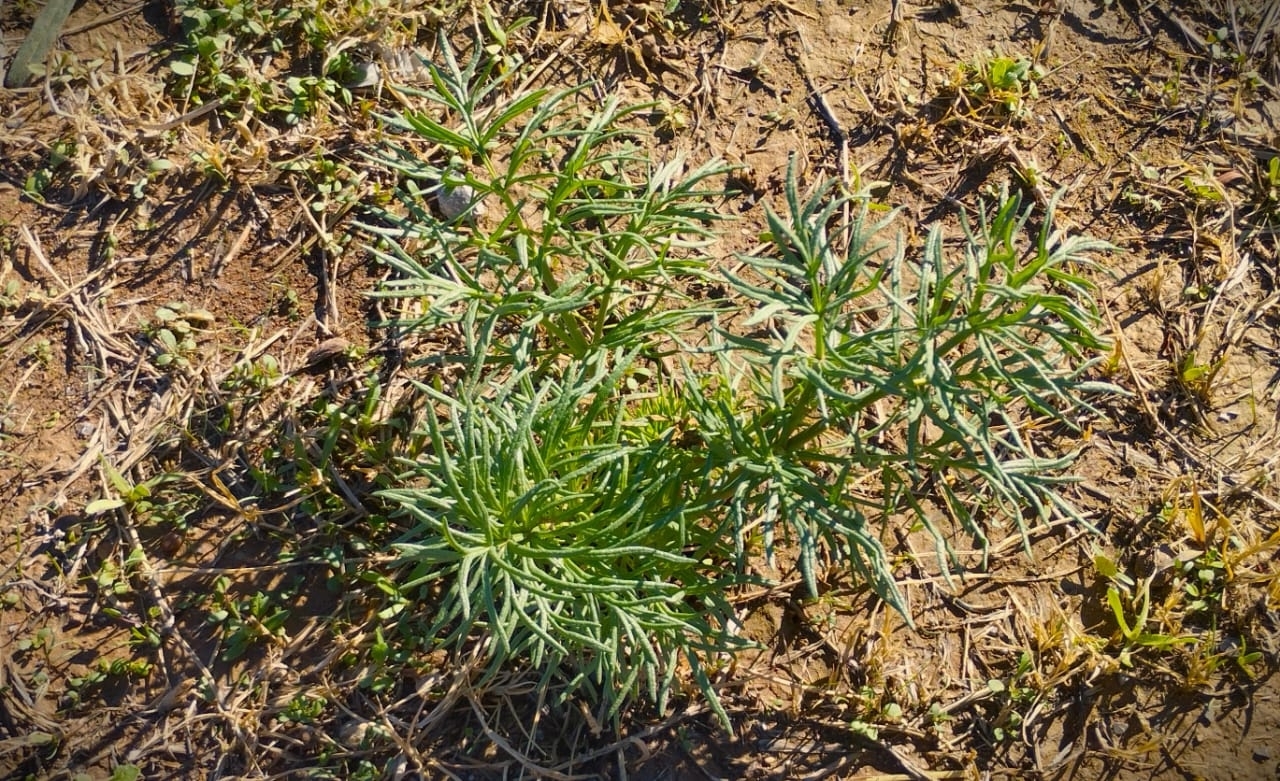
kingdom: Plantae
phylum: Tracheophyta
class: Magnoliopsida
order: Apiales
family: Apiaceae
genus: Thapsia
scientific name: Thapsia garganica
